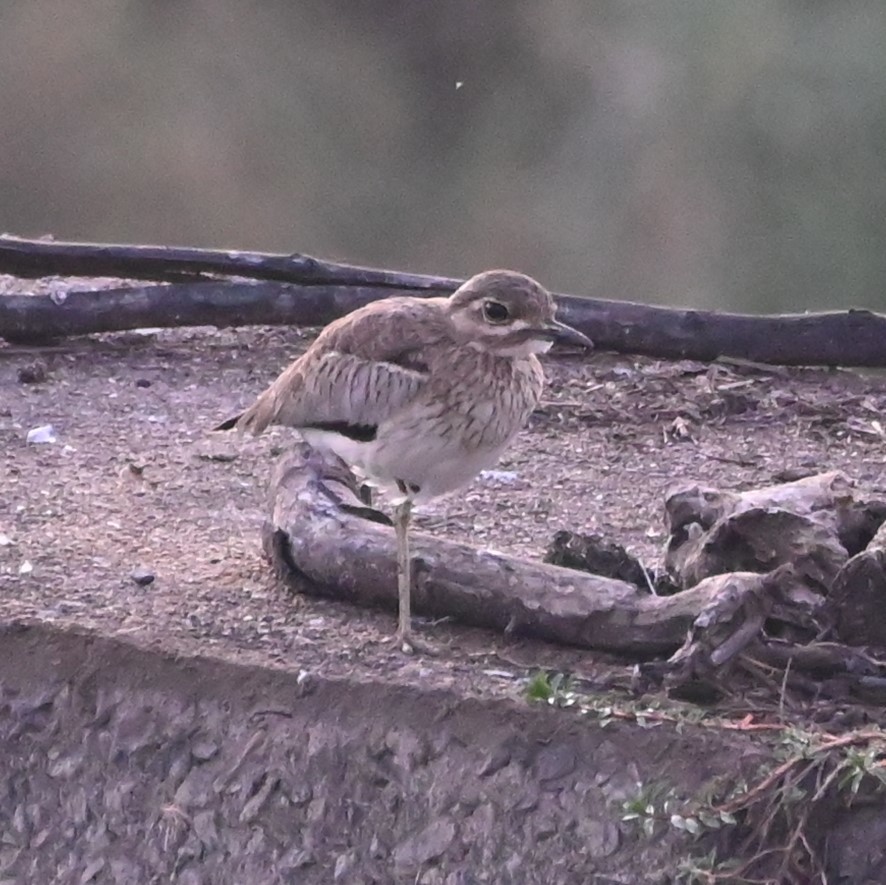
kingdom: Animalia
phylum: Chordata
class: Aves
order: Charadriiformes
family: Burhinidae
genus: Burhinus
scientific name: Burhinus vermiculatus
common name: Water thick-knee
